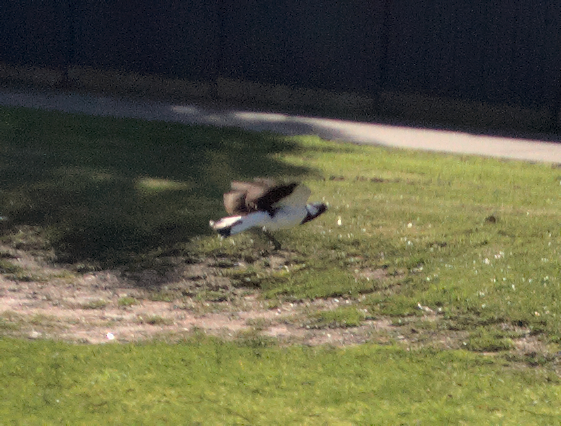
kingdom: Animalia
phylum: Chordata
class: Aves
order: Passeriformes
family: Monarchidae
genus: Grallina
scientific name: Grallina cyanoleuca
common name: Magpie-lark
